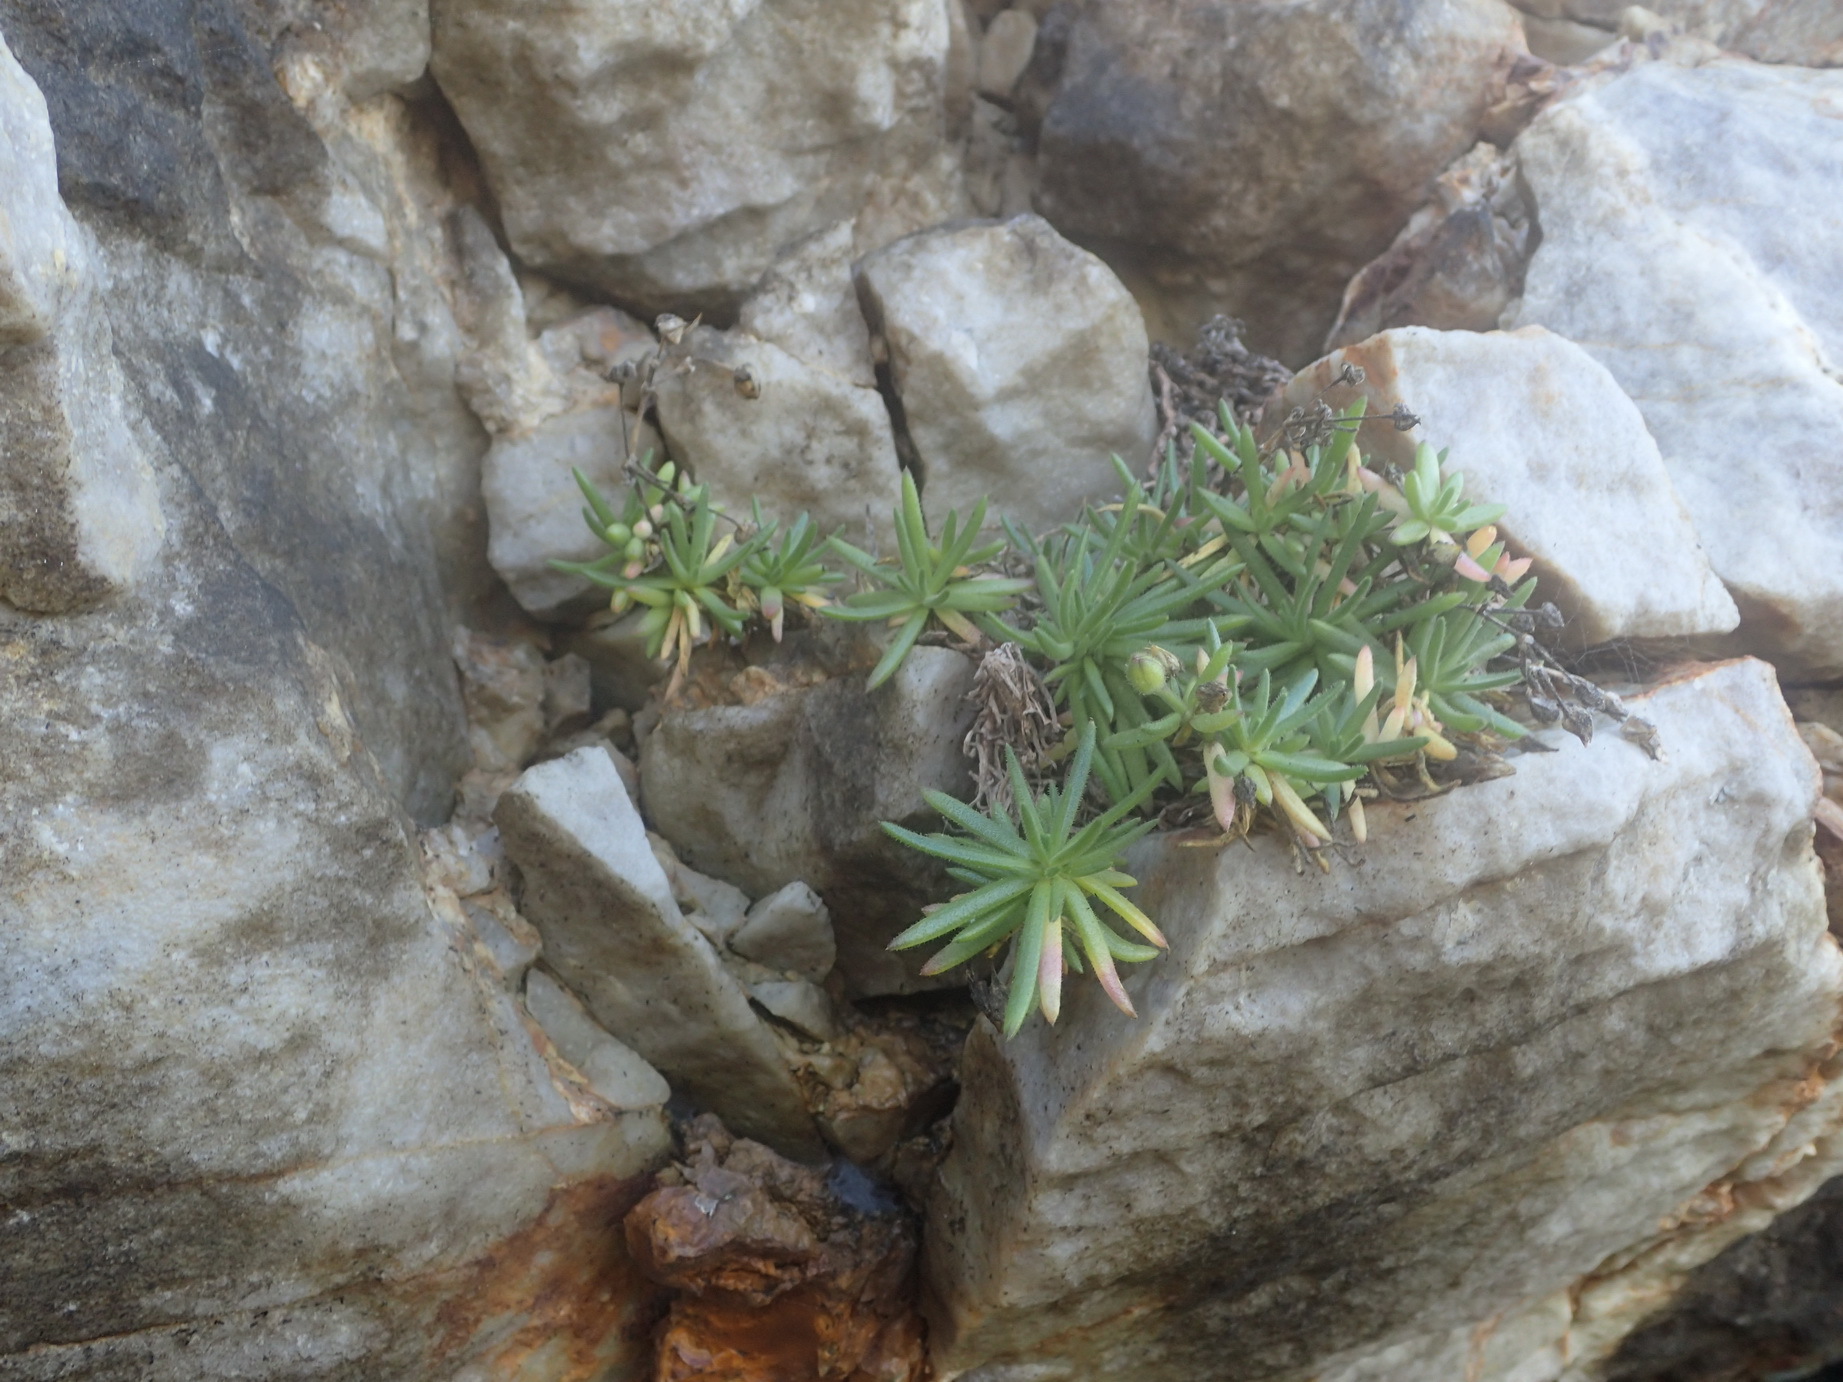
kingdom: Plantae
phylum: Tracheophyta
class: Magnoliopsida
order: Caryophyllales
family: Caryophyllaceae
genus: Spergularia
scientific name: Spergularia media
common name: Greater sea-spurrey
